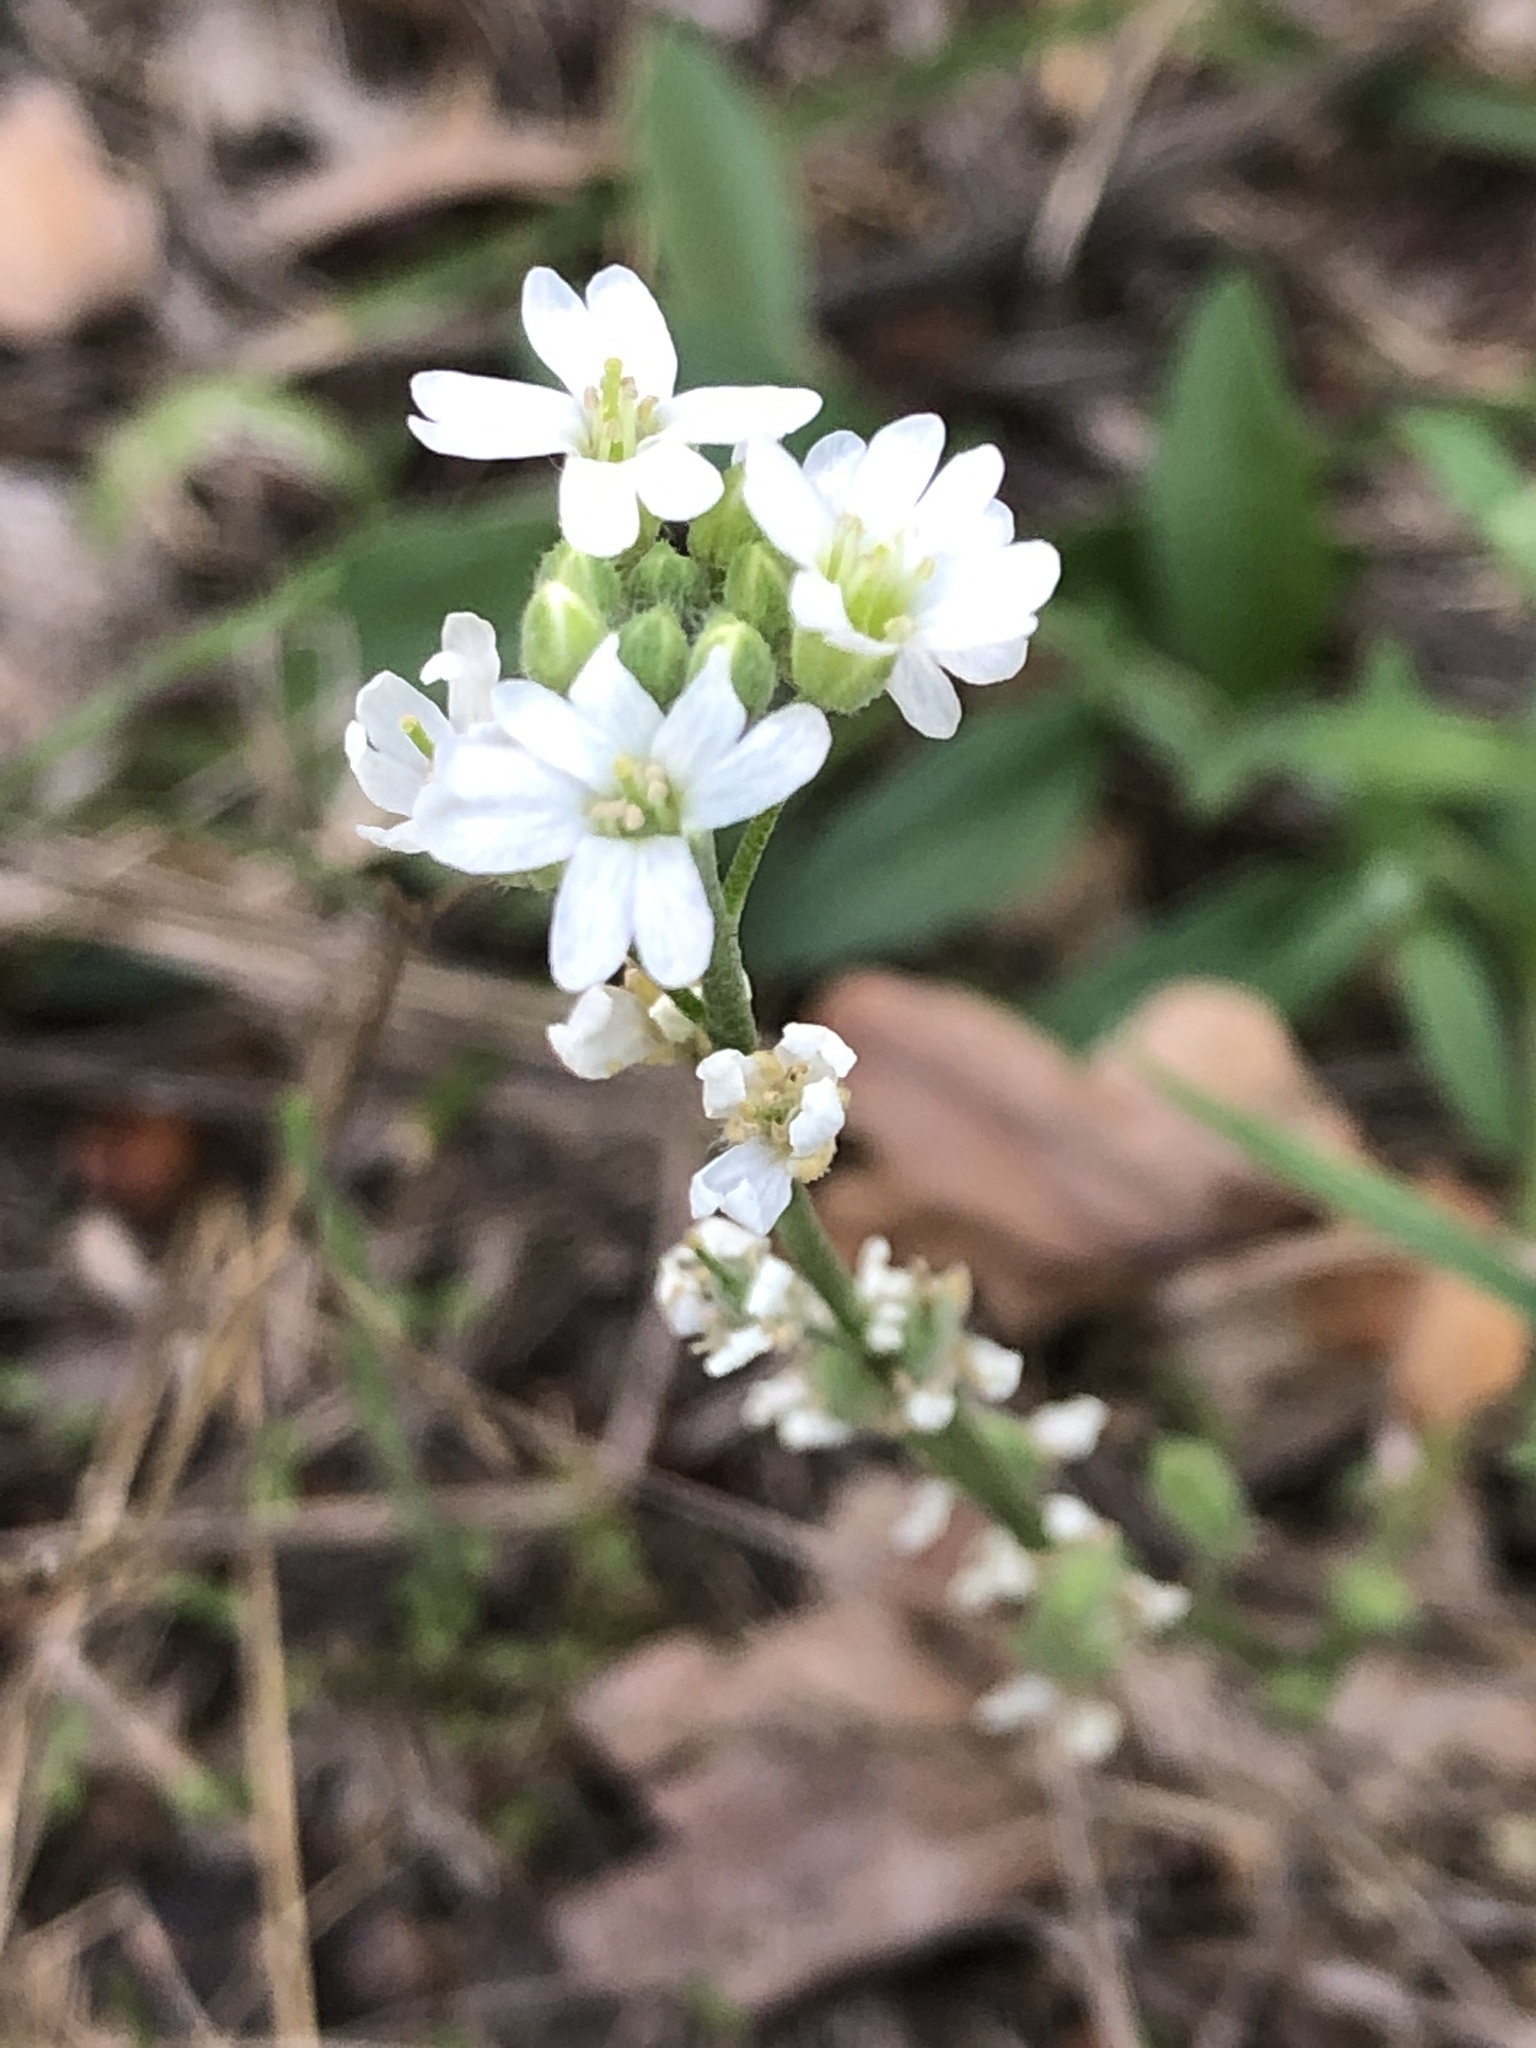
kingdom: Plantae
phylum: Tracheophyta
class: Magnoliopsida
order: Brassicales
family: Brassicaceae
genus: Berteroa
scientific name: Berteroa incana
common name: Hoary alison
